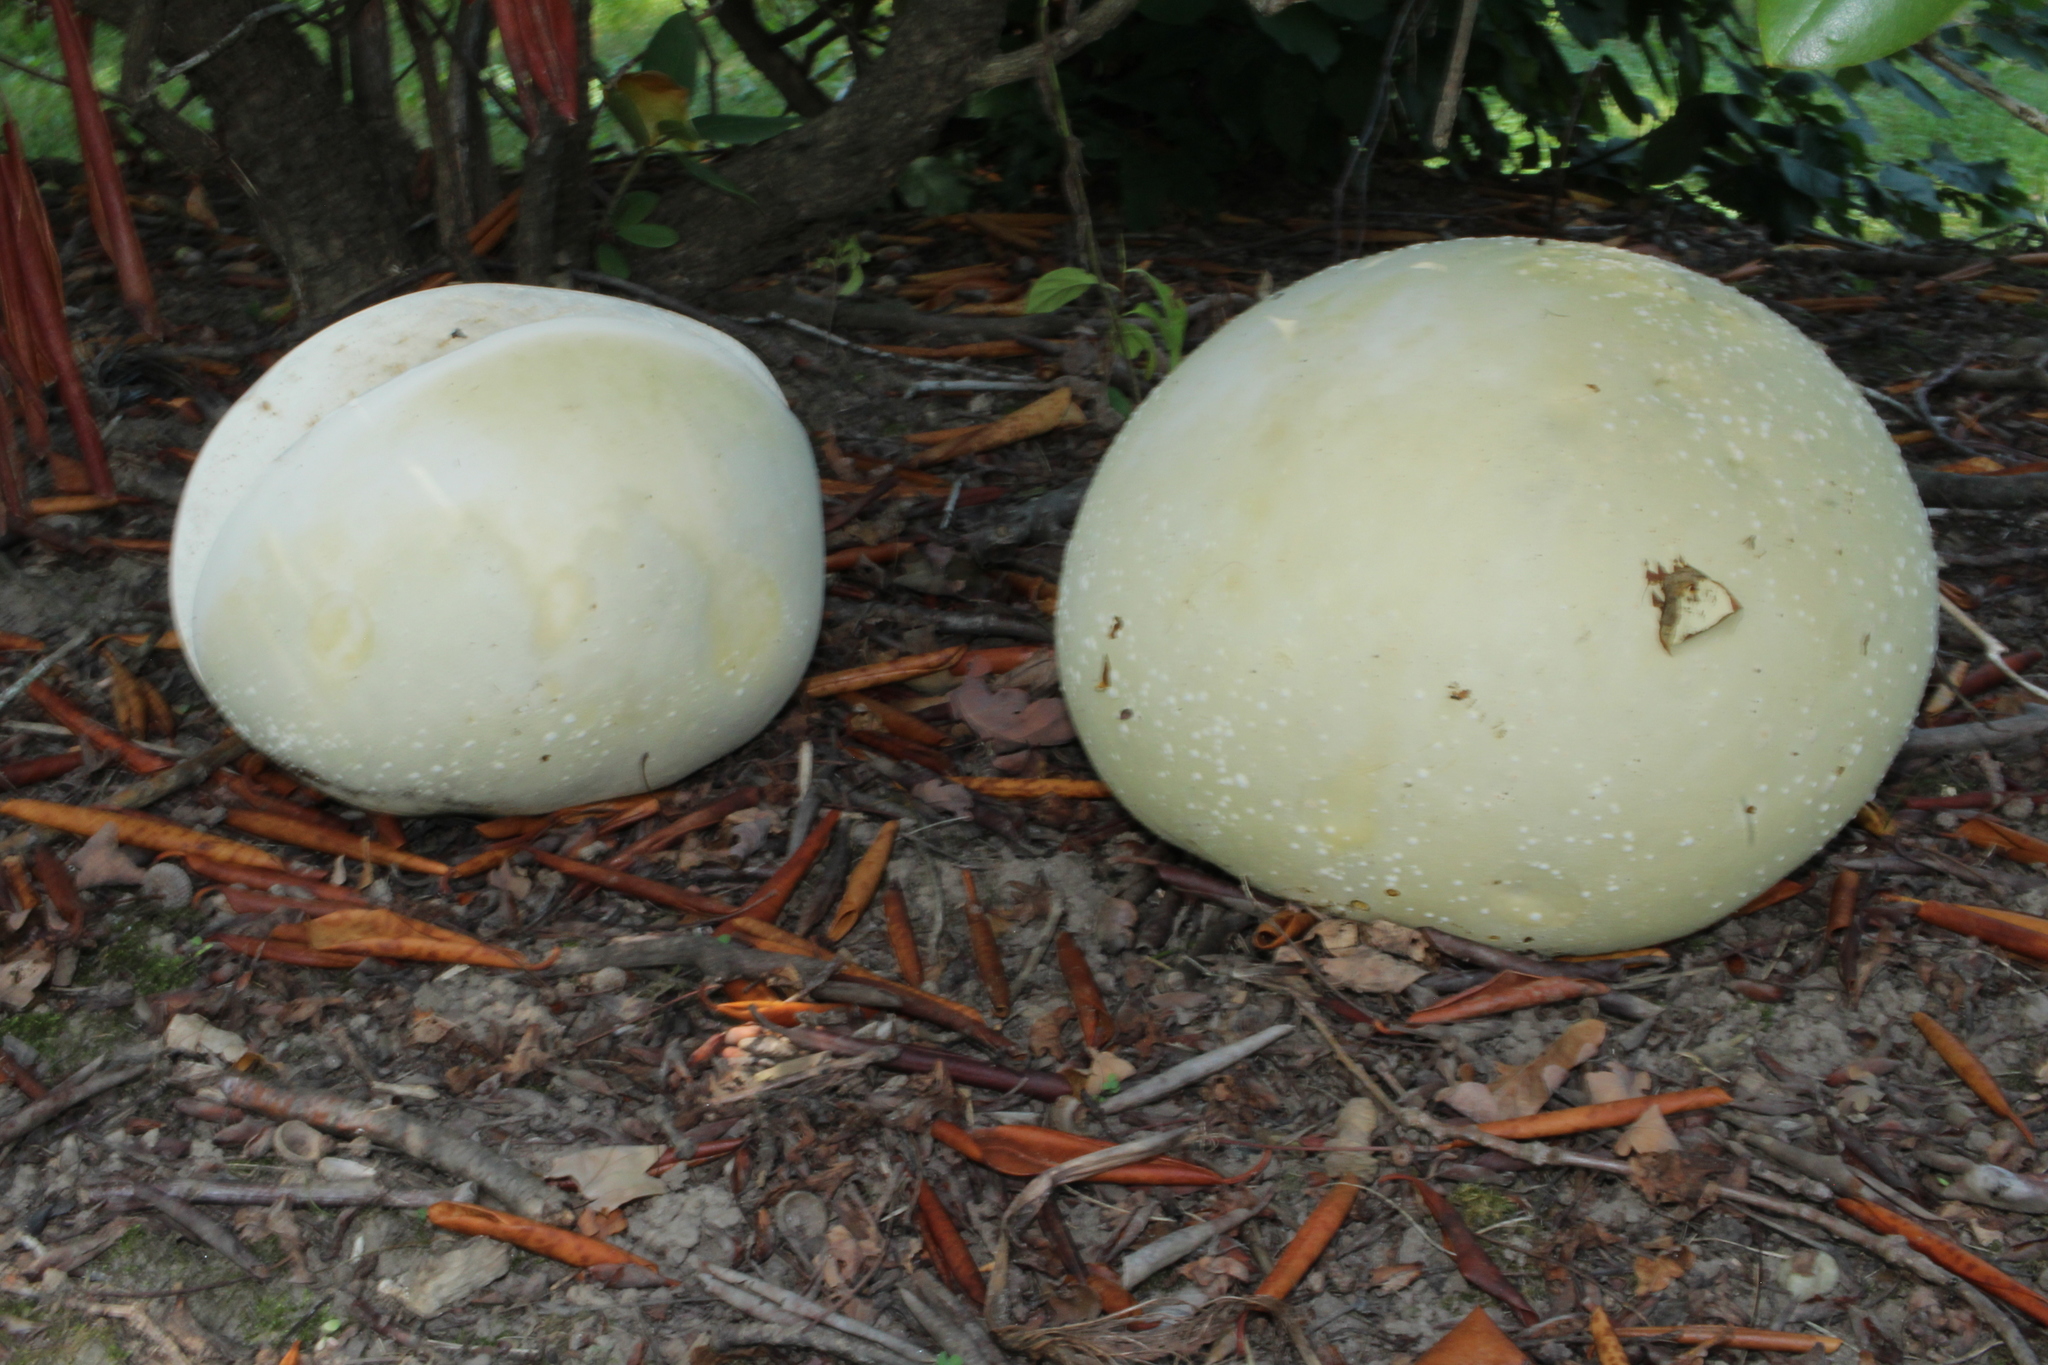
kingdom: Fungi
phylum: Basidiomycota
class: Agaricomycetes
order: Agaricales
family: Lycoperdaceae
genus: Calvatia
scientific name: Calvatia gigantea
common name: Giant puffball
